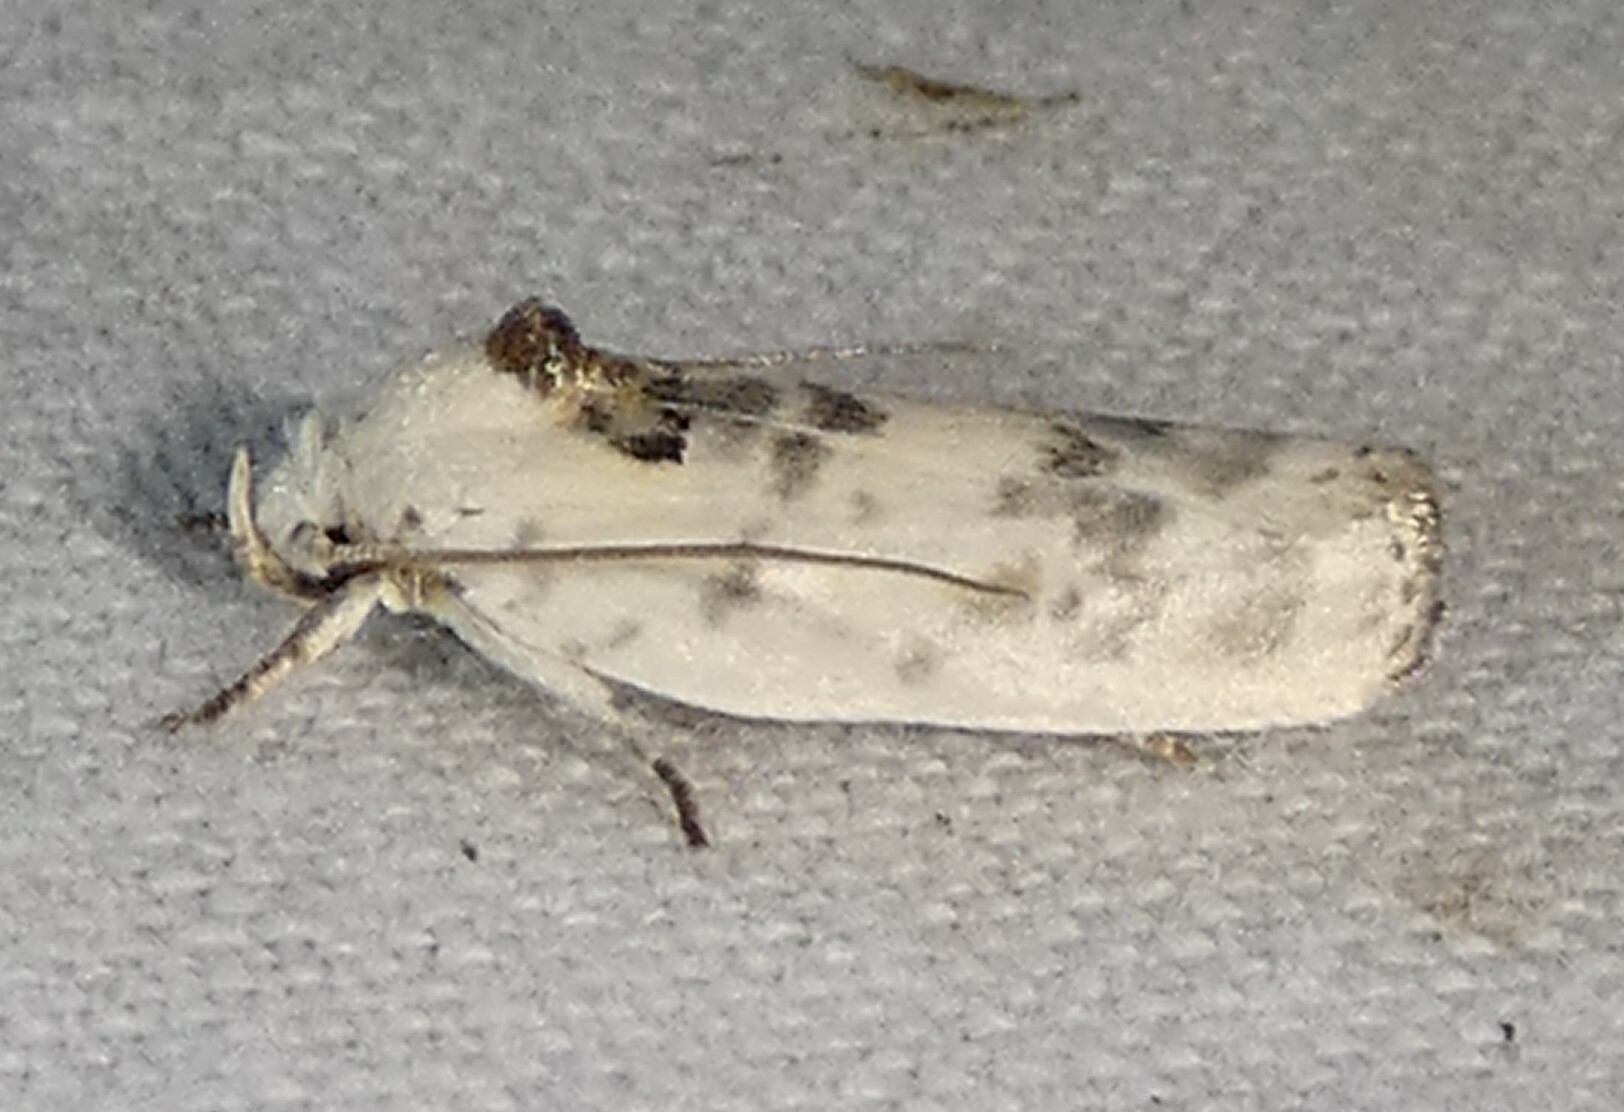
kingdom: Animalia
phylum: Arthropoda
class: Insecta
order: Lepidoptera
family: Depressariidae
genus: Antaeotricha
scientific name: Antaeotricha leucillana
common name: Pale gray bird-dropping moth
